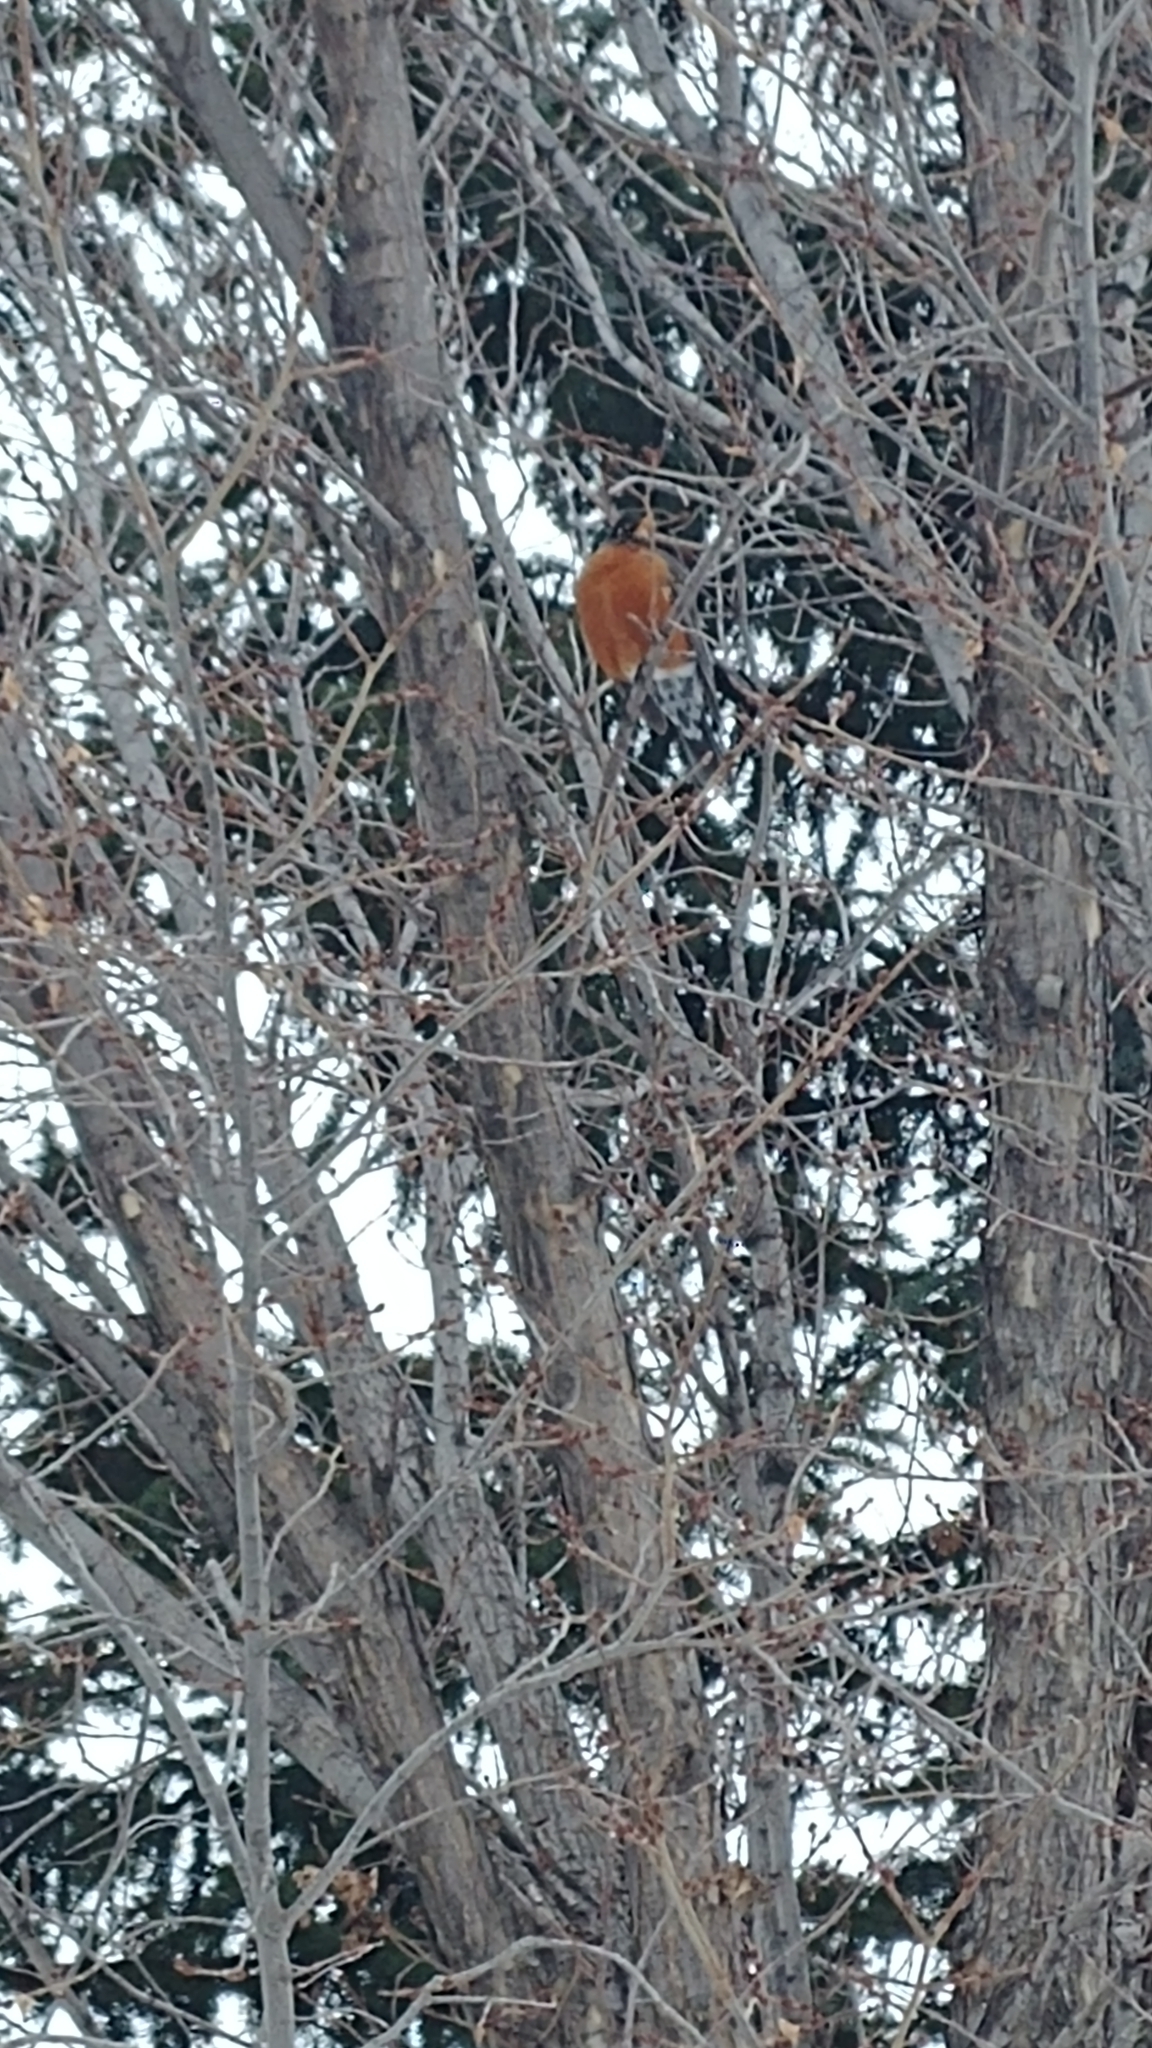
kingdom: Animalia
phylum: Chordata
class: Aves
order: Passeriformes
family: Turdidae
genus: Turdus
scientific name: Turdus migratorius
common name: American robin
